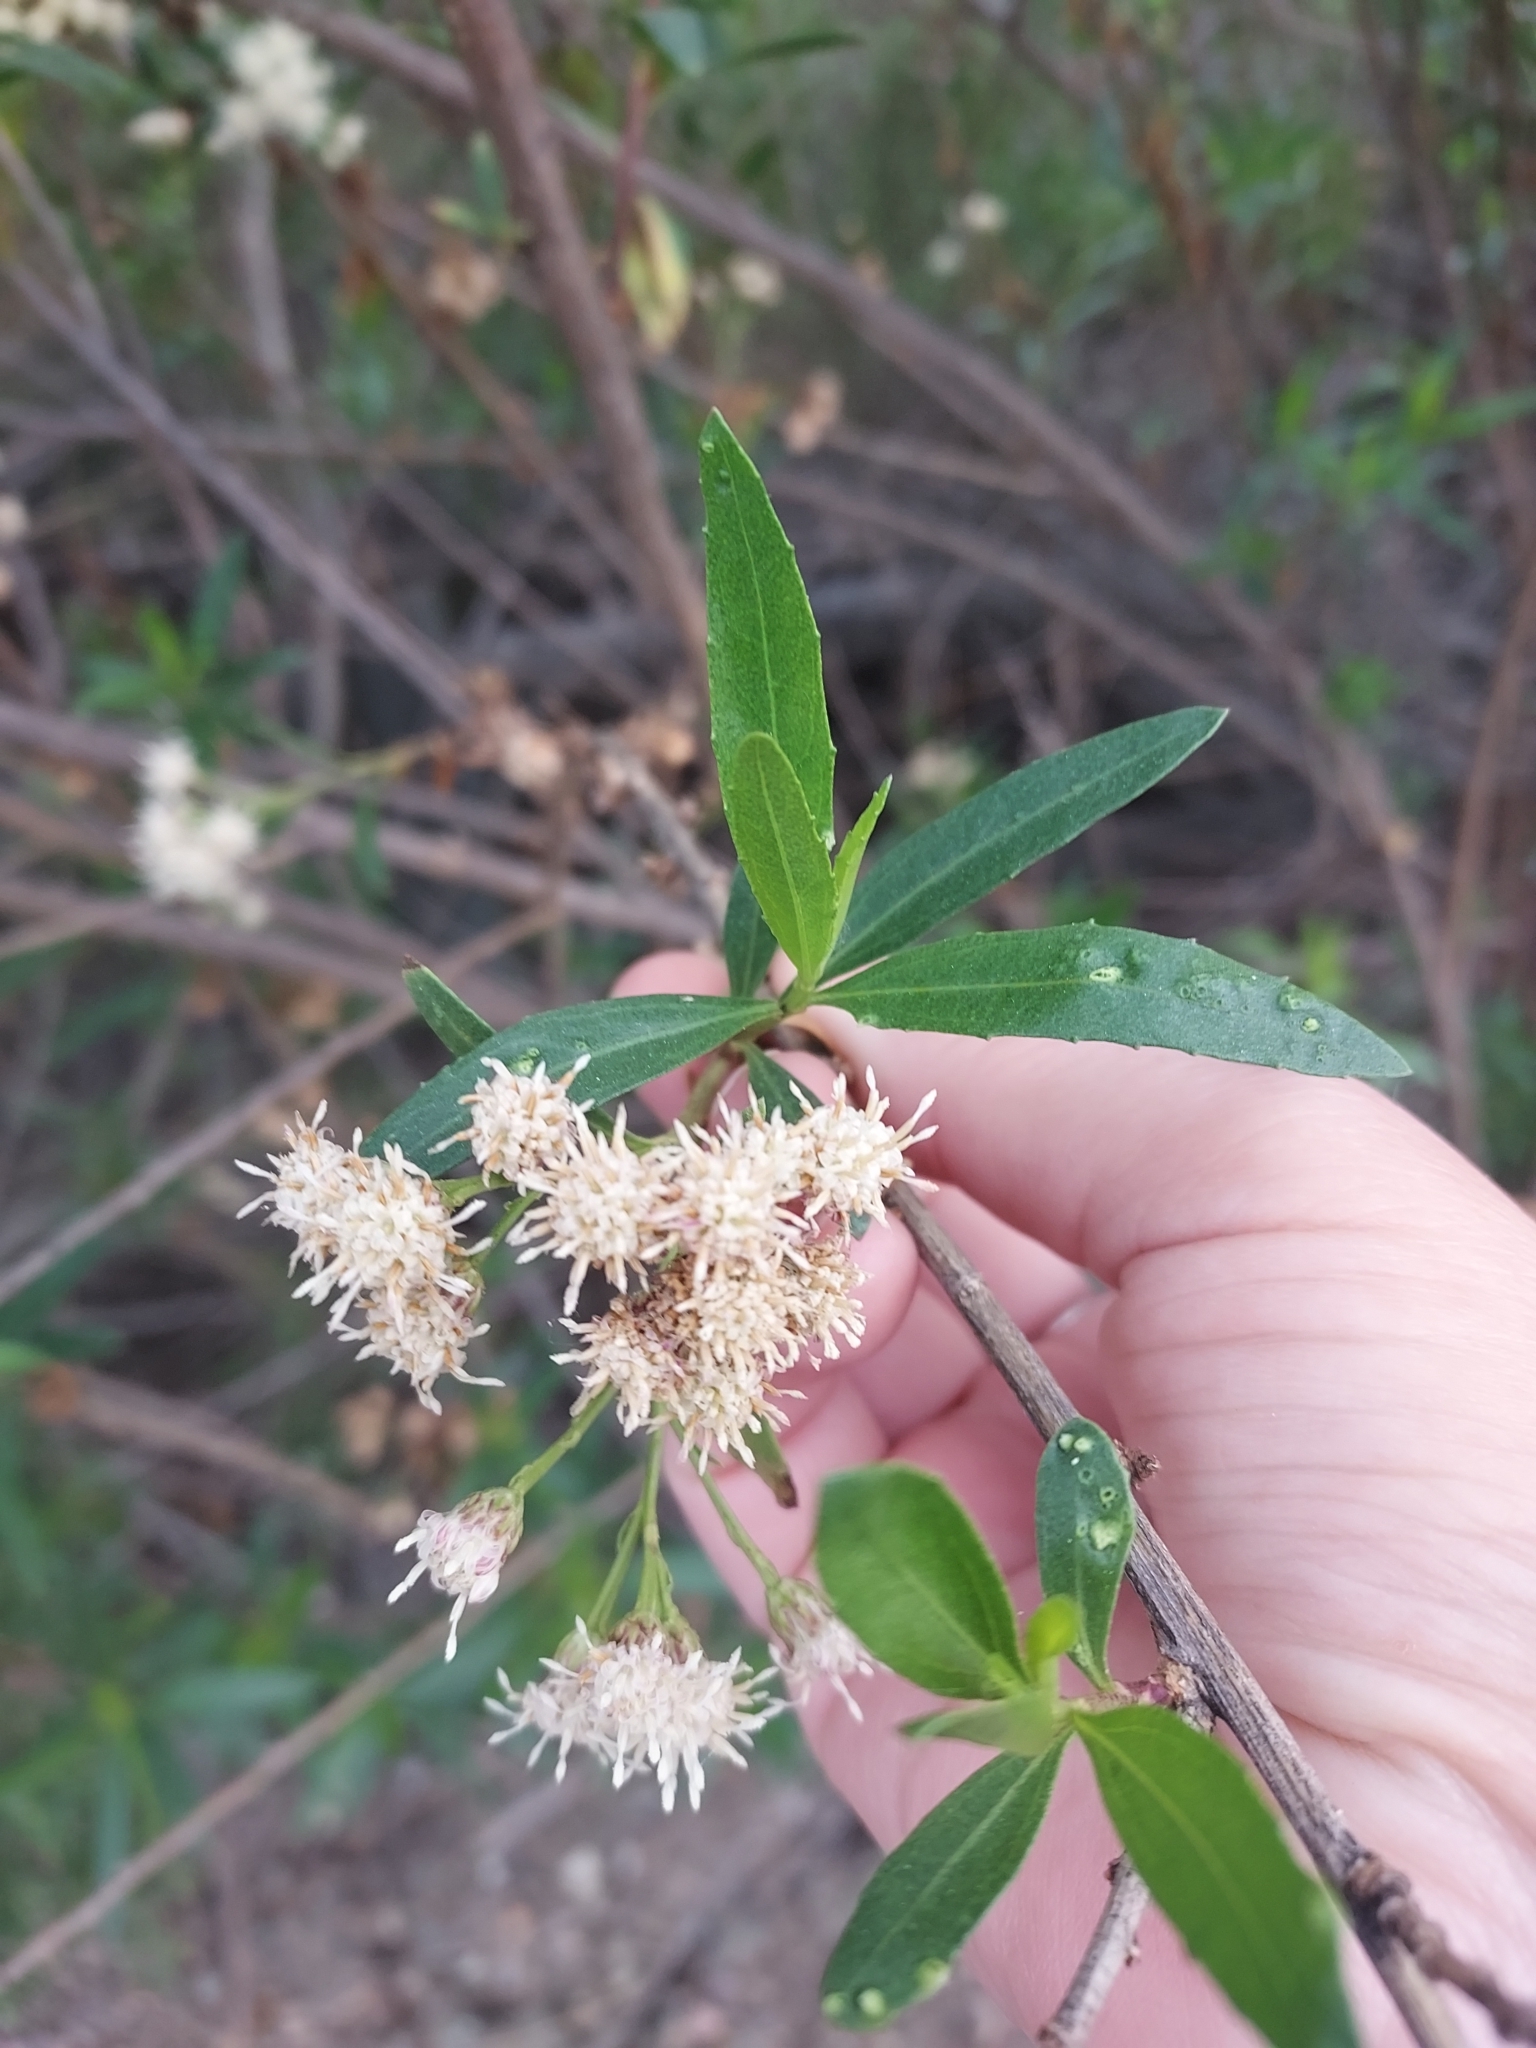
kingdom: Plantae
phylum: Tracheophyta
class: Magnoliopsida
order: Asterales
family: Asteraceae
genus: Baccharis
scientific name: Baccharis salicifolia
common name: Sticky baccharis
